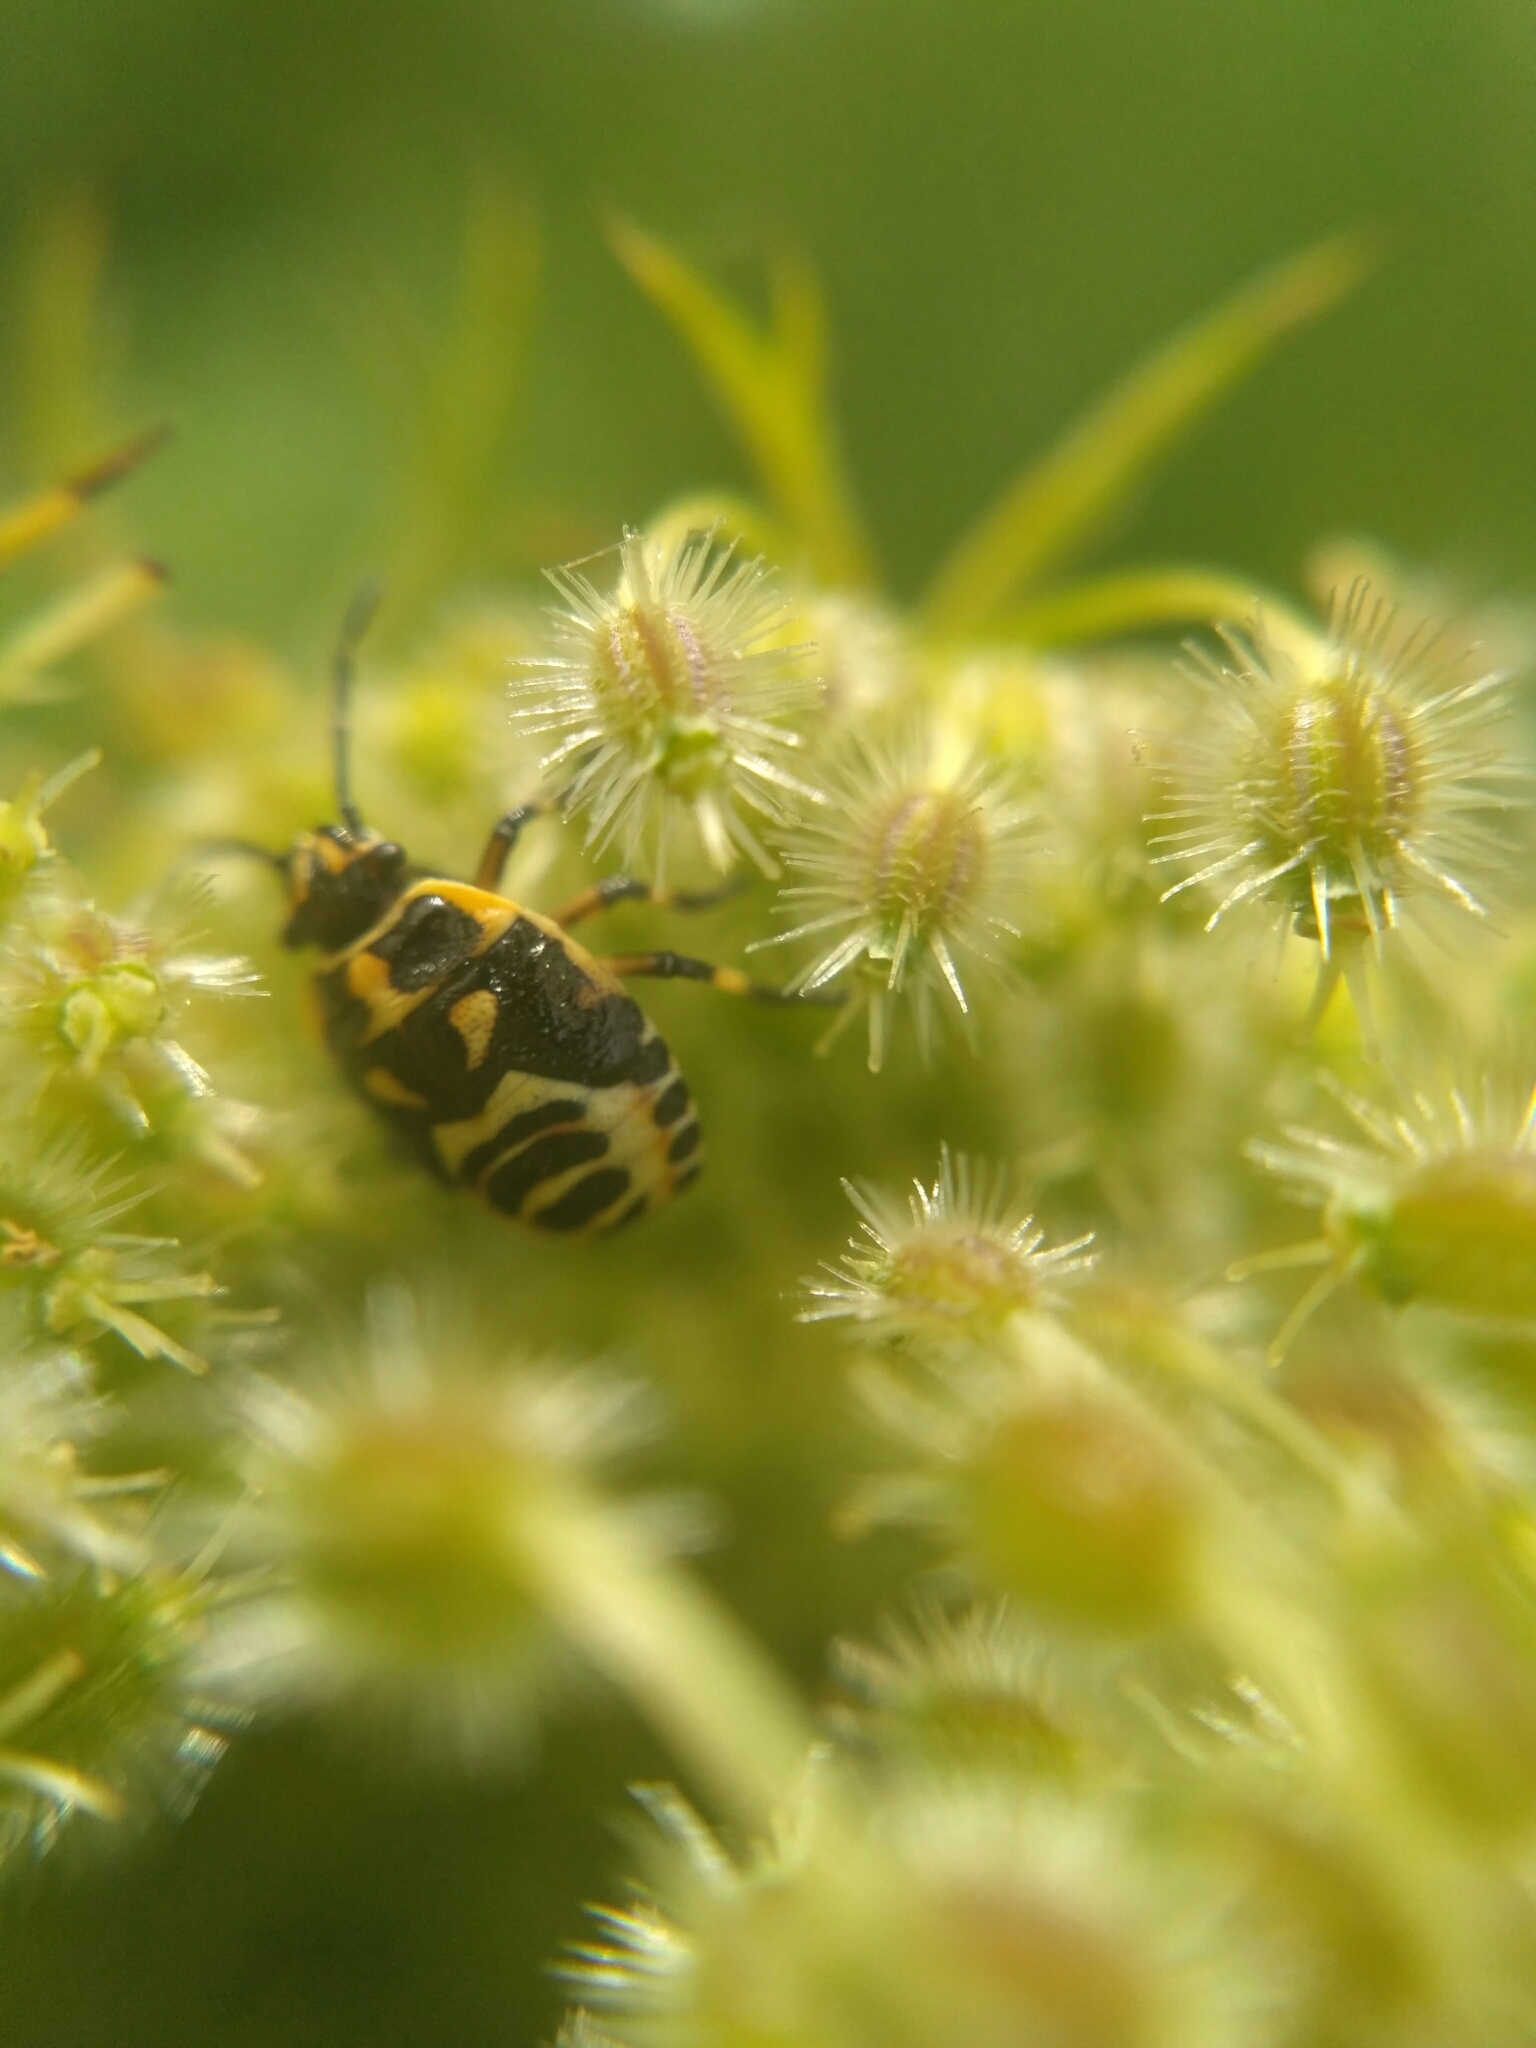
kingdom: Animalia
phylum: Arthropoda
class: Insecta
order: Hemiptera
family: Pentatomidae
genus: Eurydema
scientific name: Eurydema oleracea
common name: Cabbage bug
